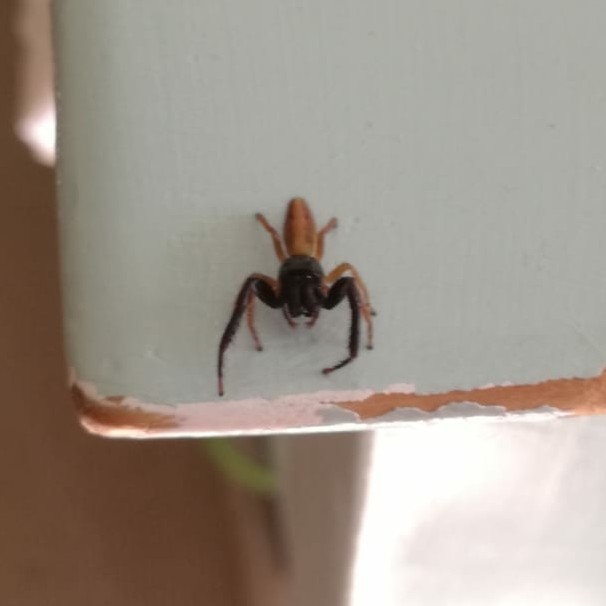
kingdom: Animalia
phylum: Arthropoda
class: Arachnida
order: Araneae
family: Salticidae
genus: Trite
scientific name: Trite planiceps
